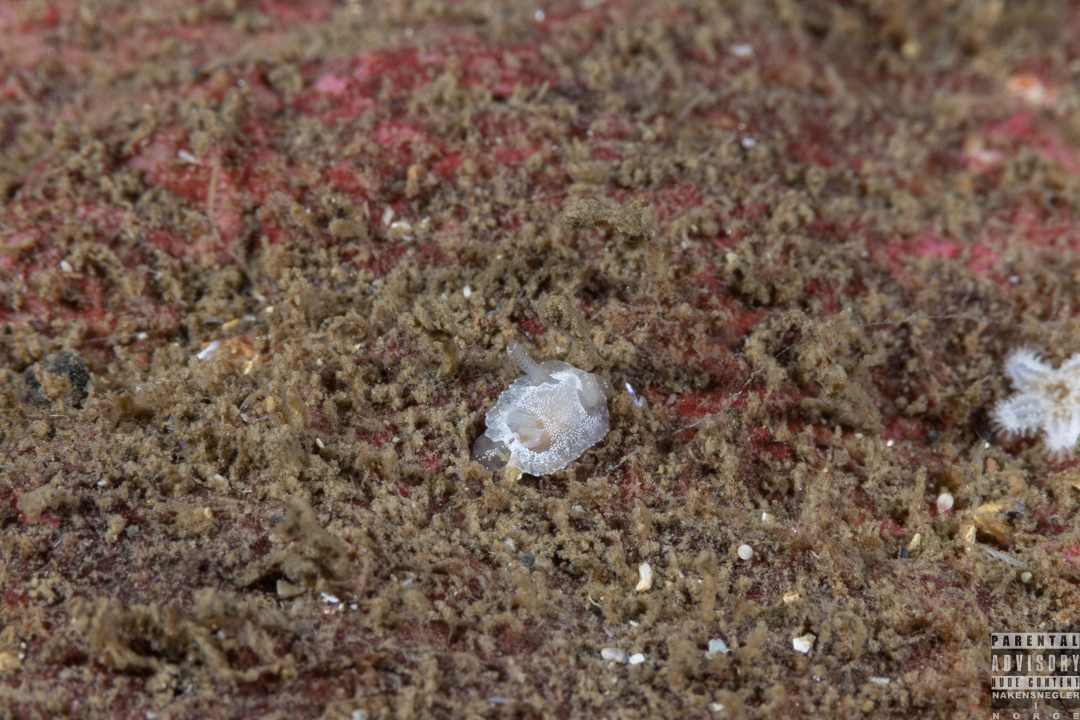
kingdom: Animalia
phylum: Mollusca
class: Gastropoda
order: Nudibranchia
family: Goniodorididae
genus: Okenia
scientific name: Okenia
